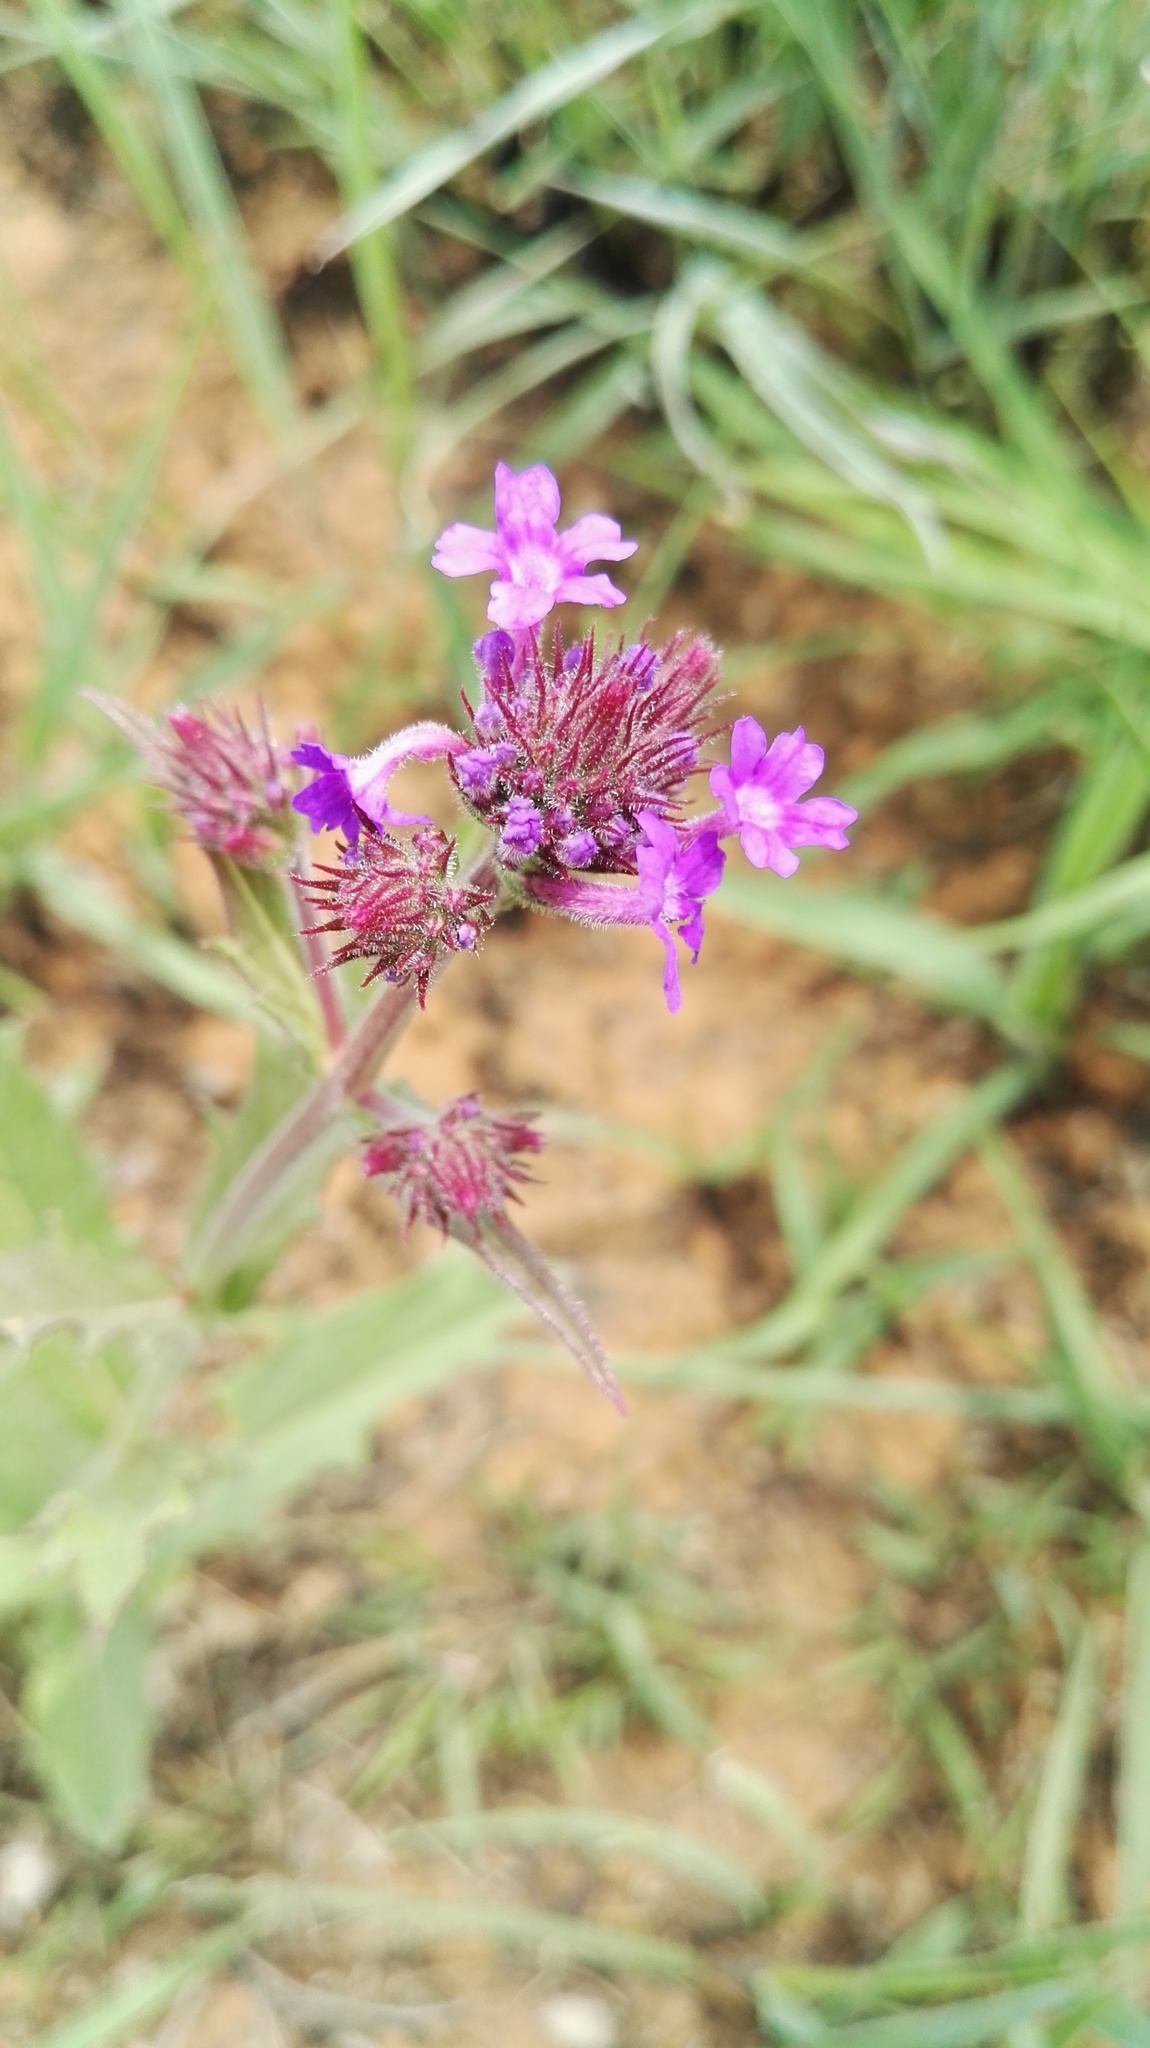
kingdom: Plantae
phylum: Tracheophyta
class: Magnoliopsida
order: Lamiales
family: Verbenaceae
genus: Verbena
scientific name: Verbena rigida
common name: Slender vervain
